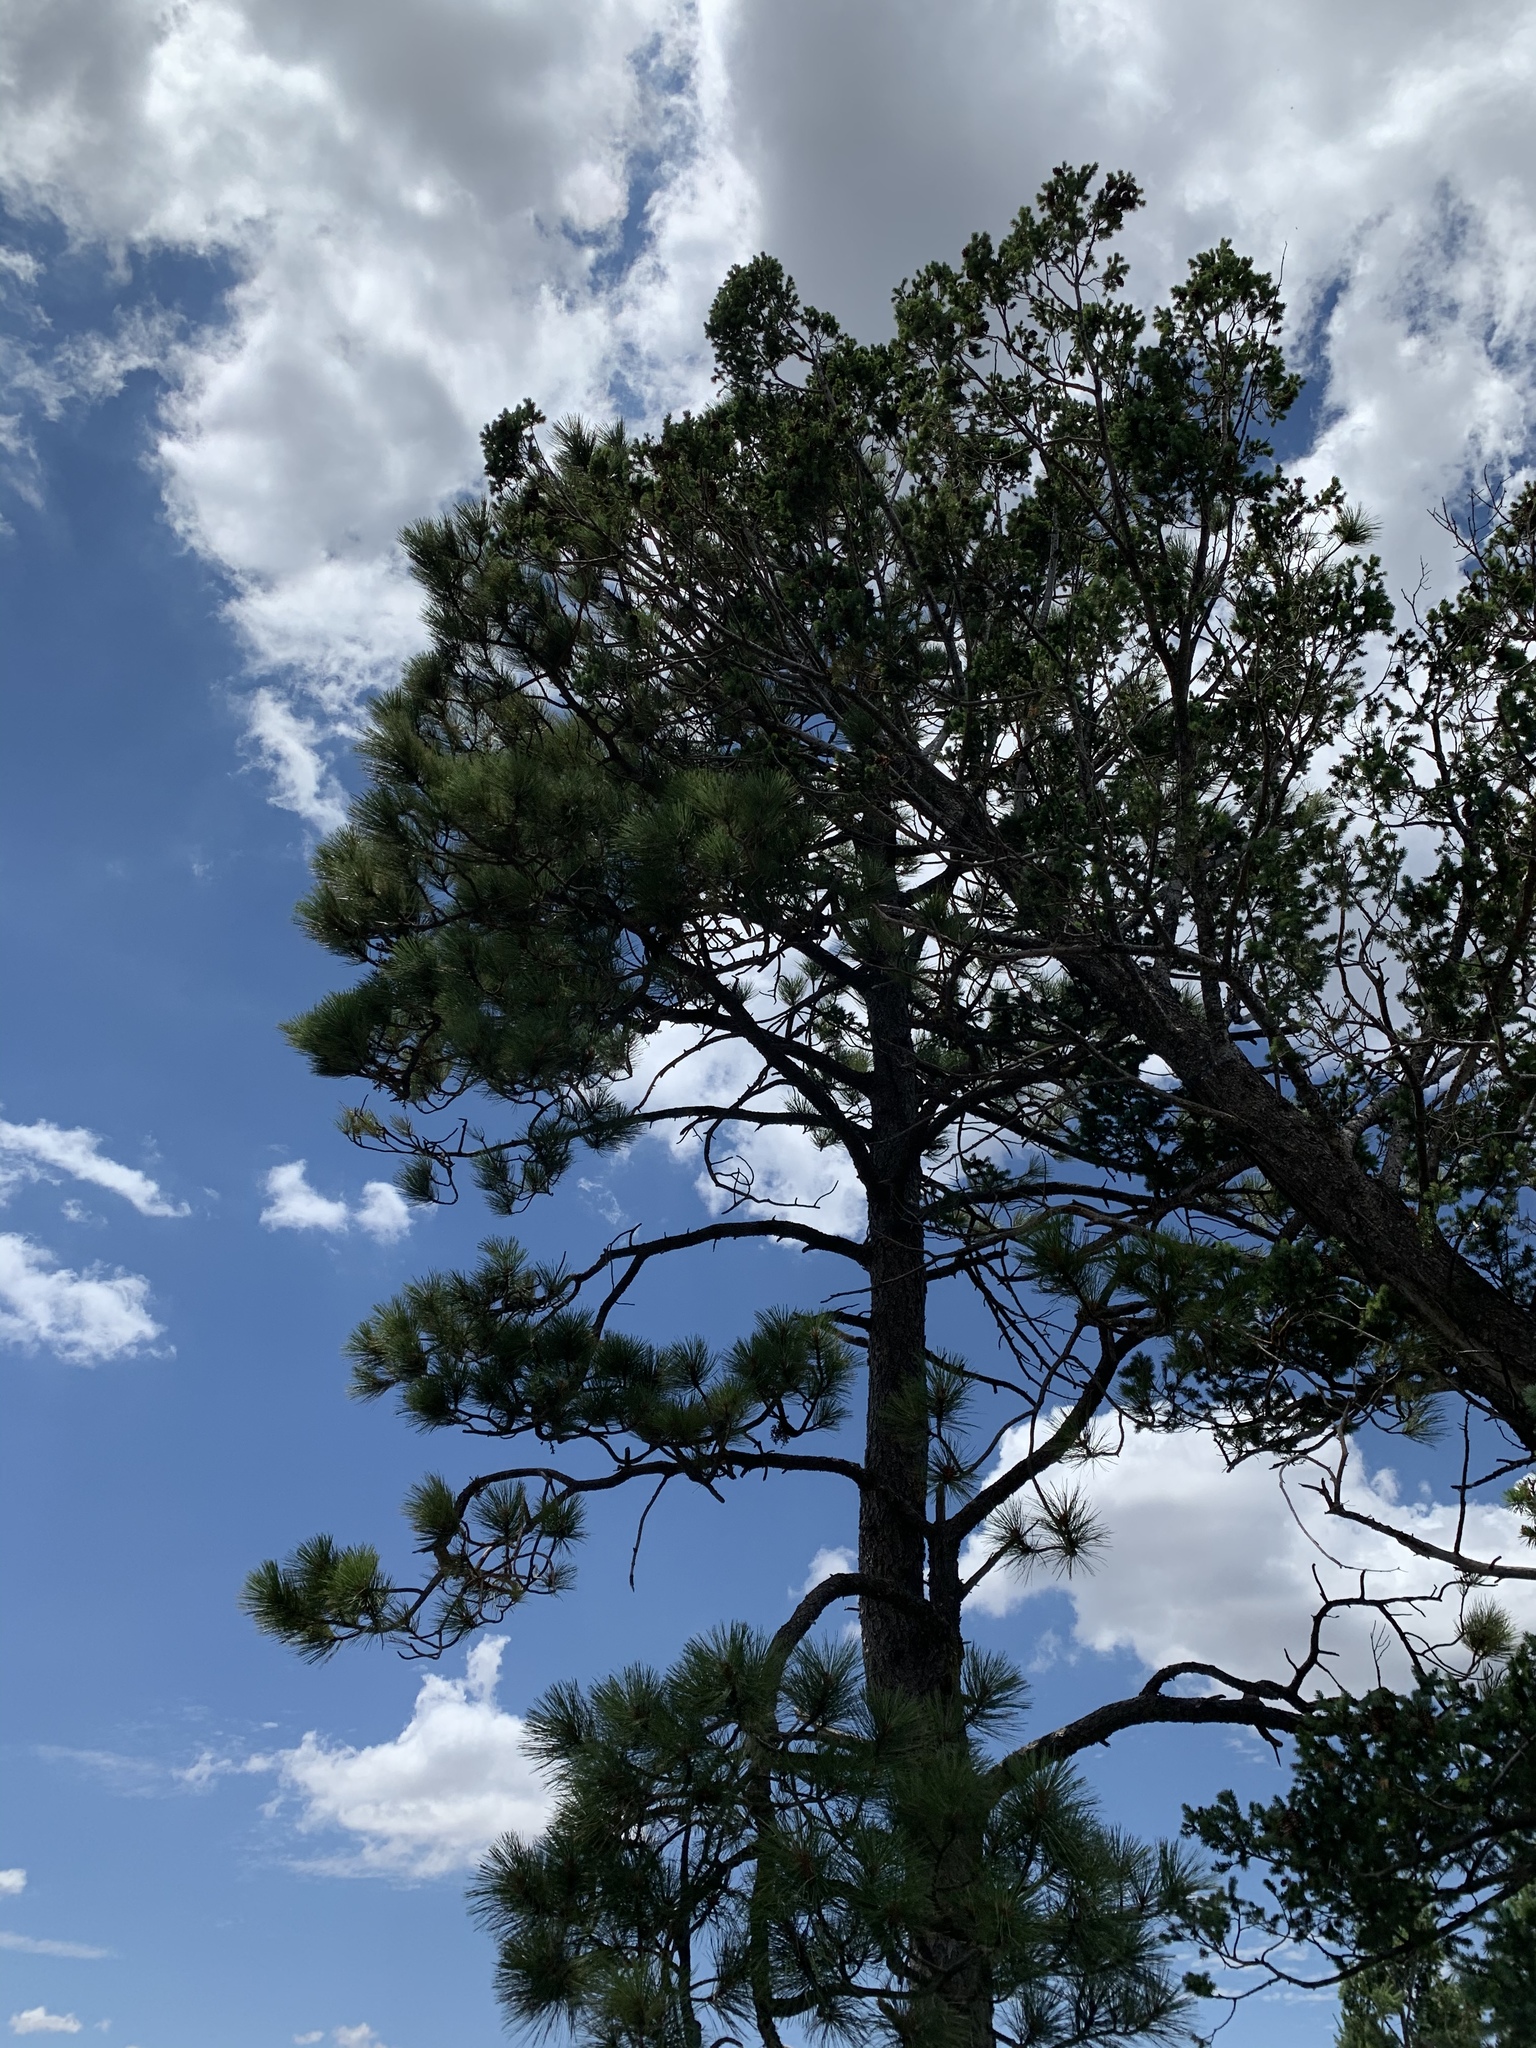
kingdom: Plantae
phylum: Tracheophyta
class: Pinopsida
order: Pinales
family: Pinaceae
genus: Pinus
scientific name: Pinus ponderosa
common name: Western yellow-pine
